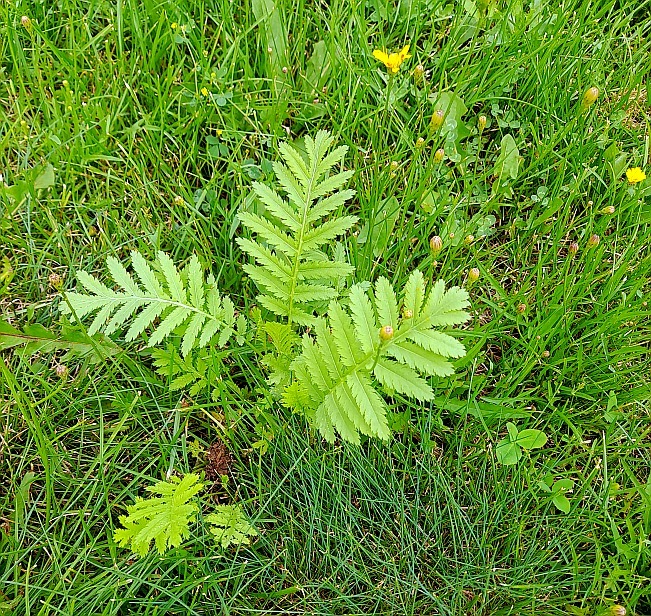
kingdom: Plantae
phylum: Tracheophyta
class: Magnoliopsida
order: Asterales
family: Asteraceae
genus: Tanacetum
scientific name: Tanacetum vulgare
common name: Common tansy
